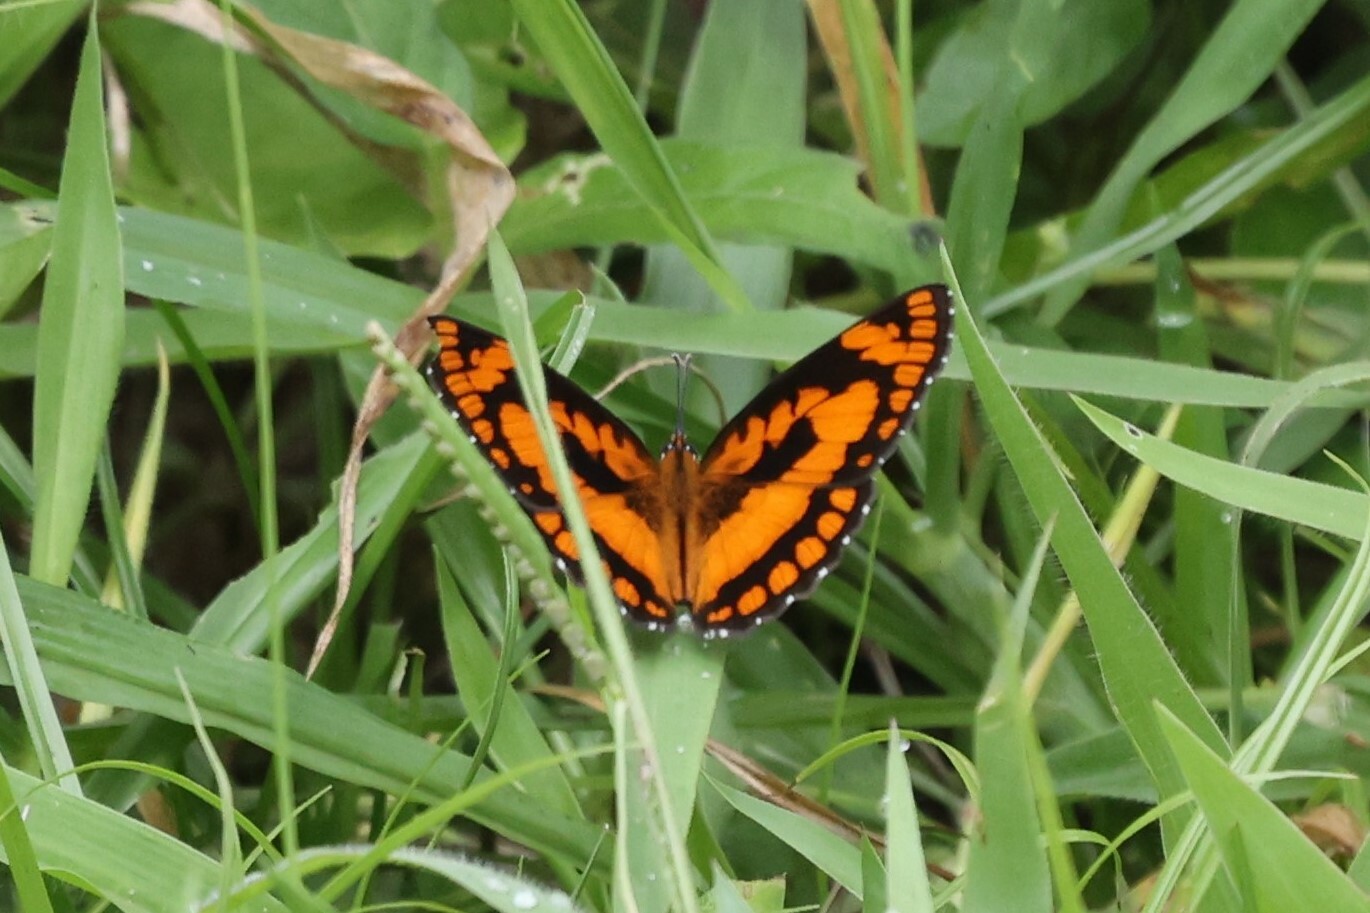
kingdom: Animalia
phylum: Arthropoda
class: Insecta
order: Lepidoptera
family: Nymphalidae
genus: Byblia
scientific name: Byblia anvatara
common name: African joker
